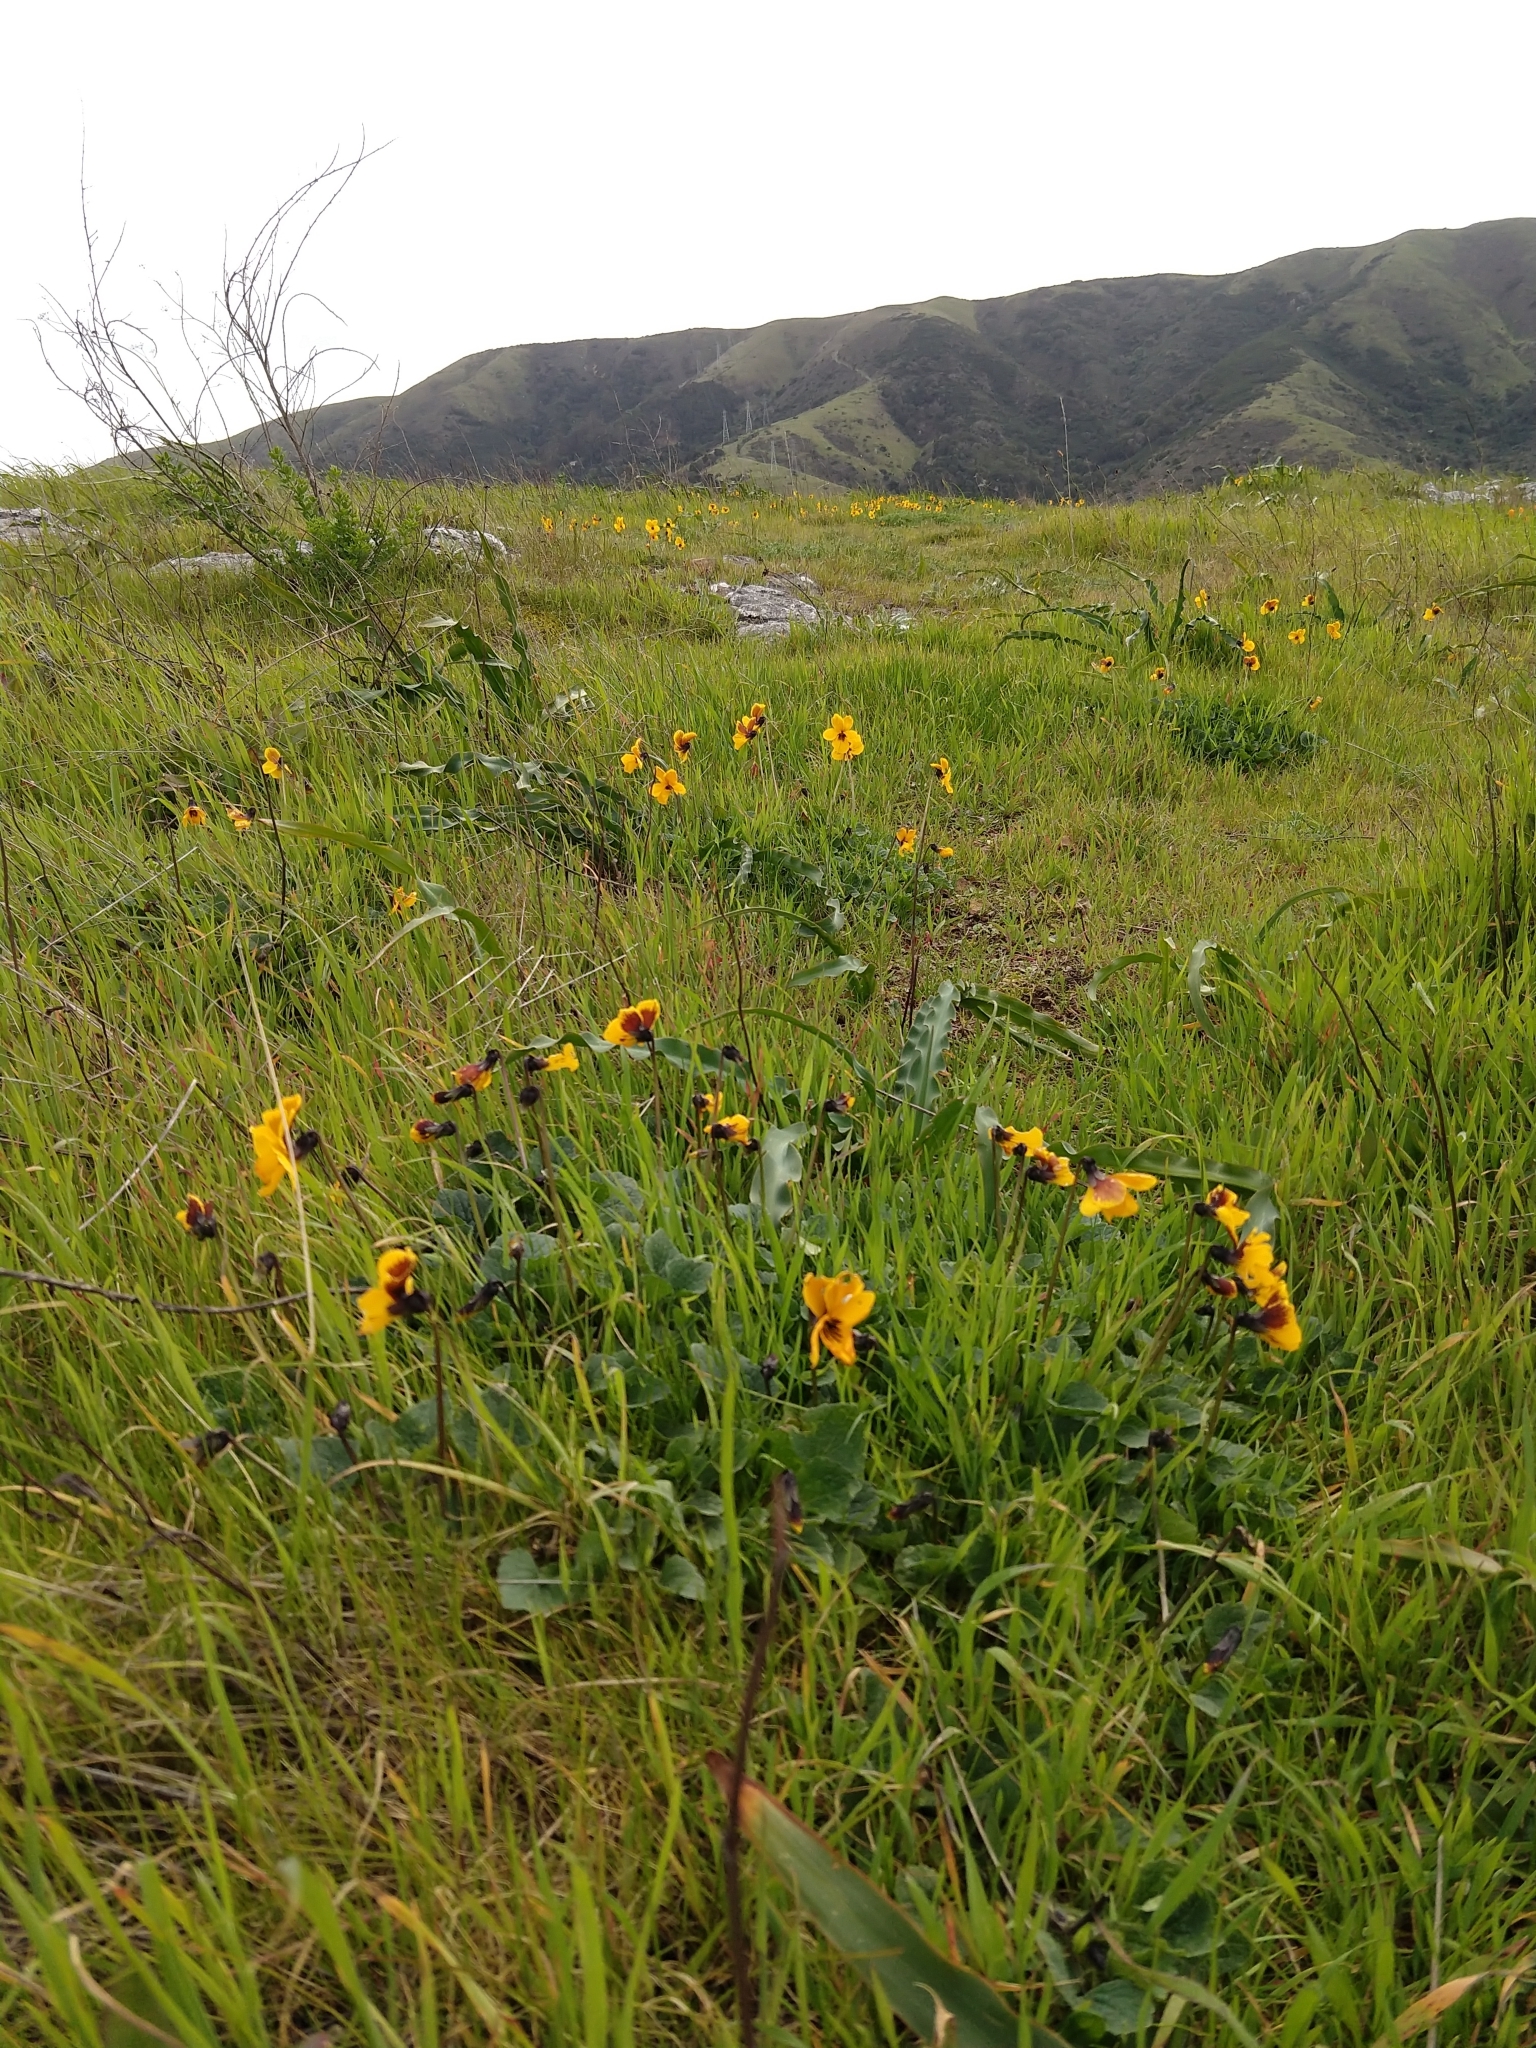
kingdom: Plantae
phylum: Tracheophyta
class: Magnoliopsida
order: Malpighiales
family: Violaceae
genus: Viola
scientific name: Viola pedunculata
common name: California golden violet
